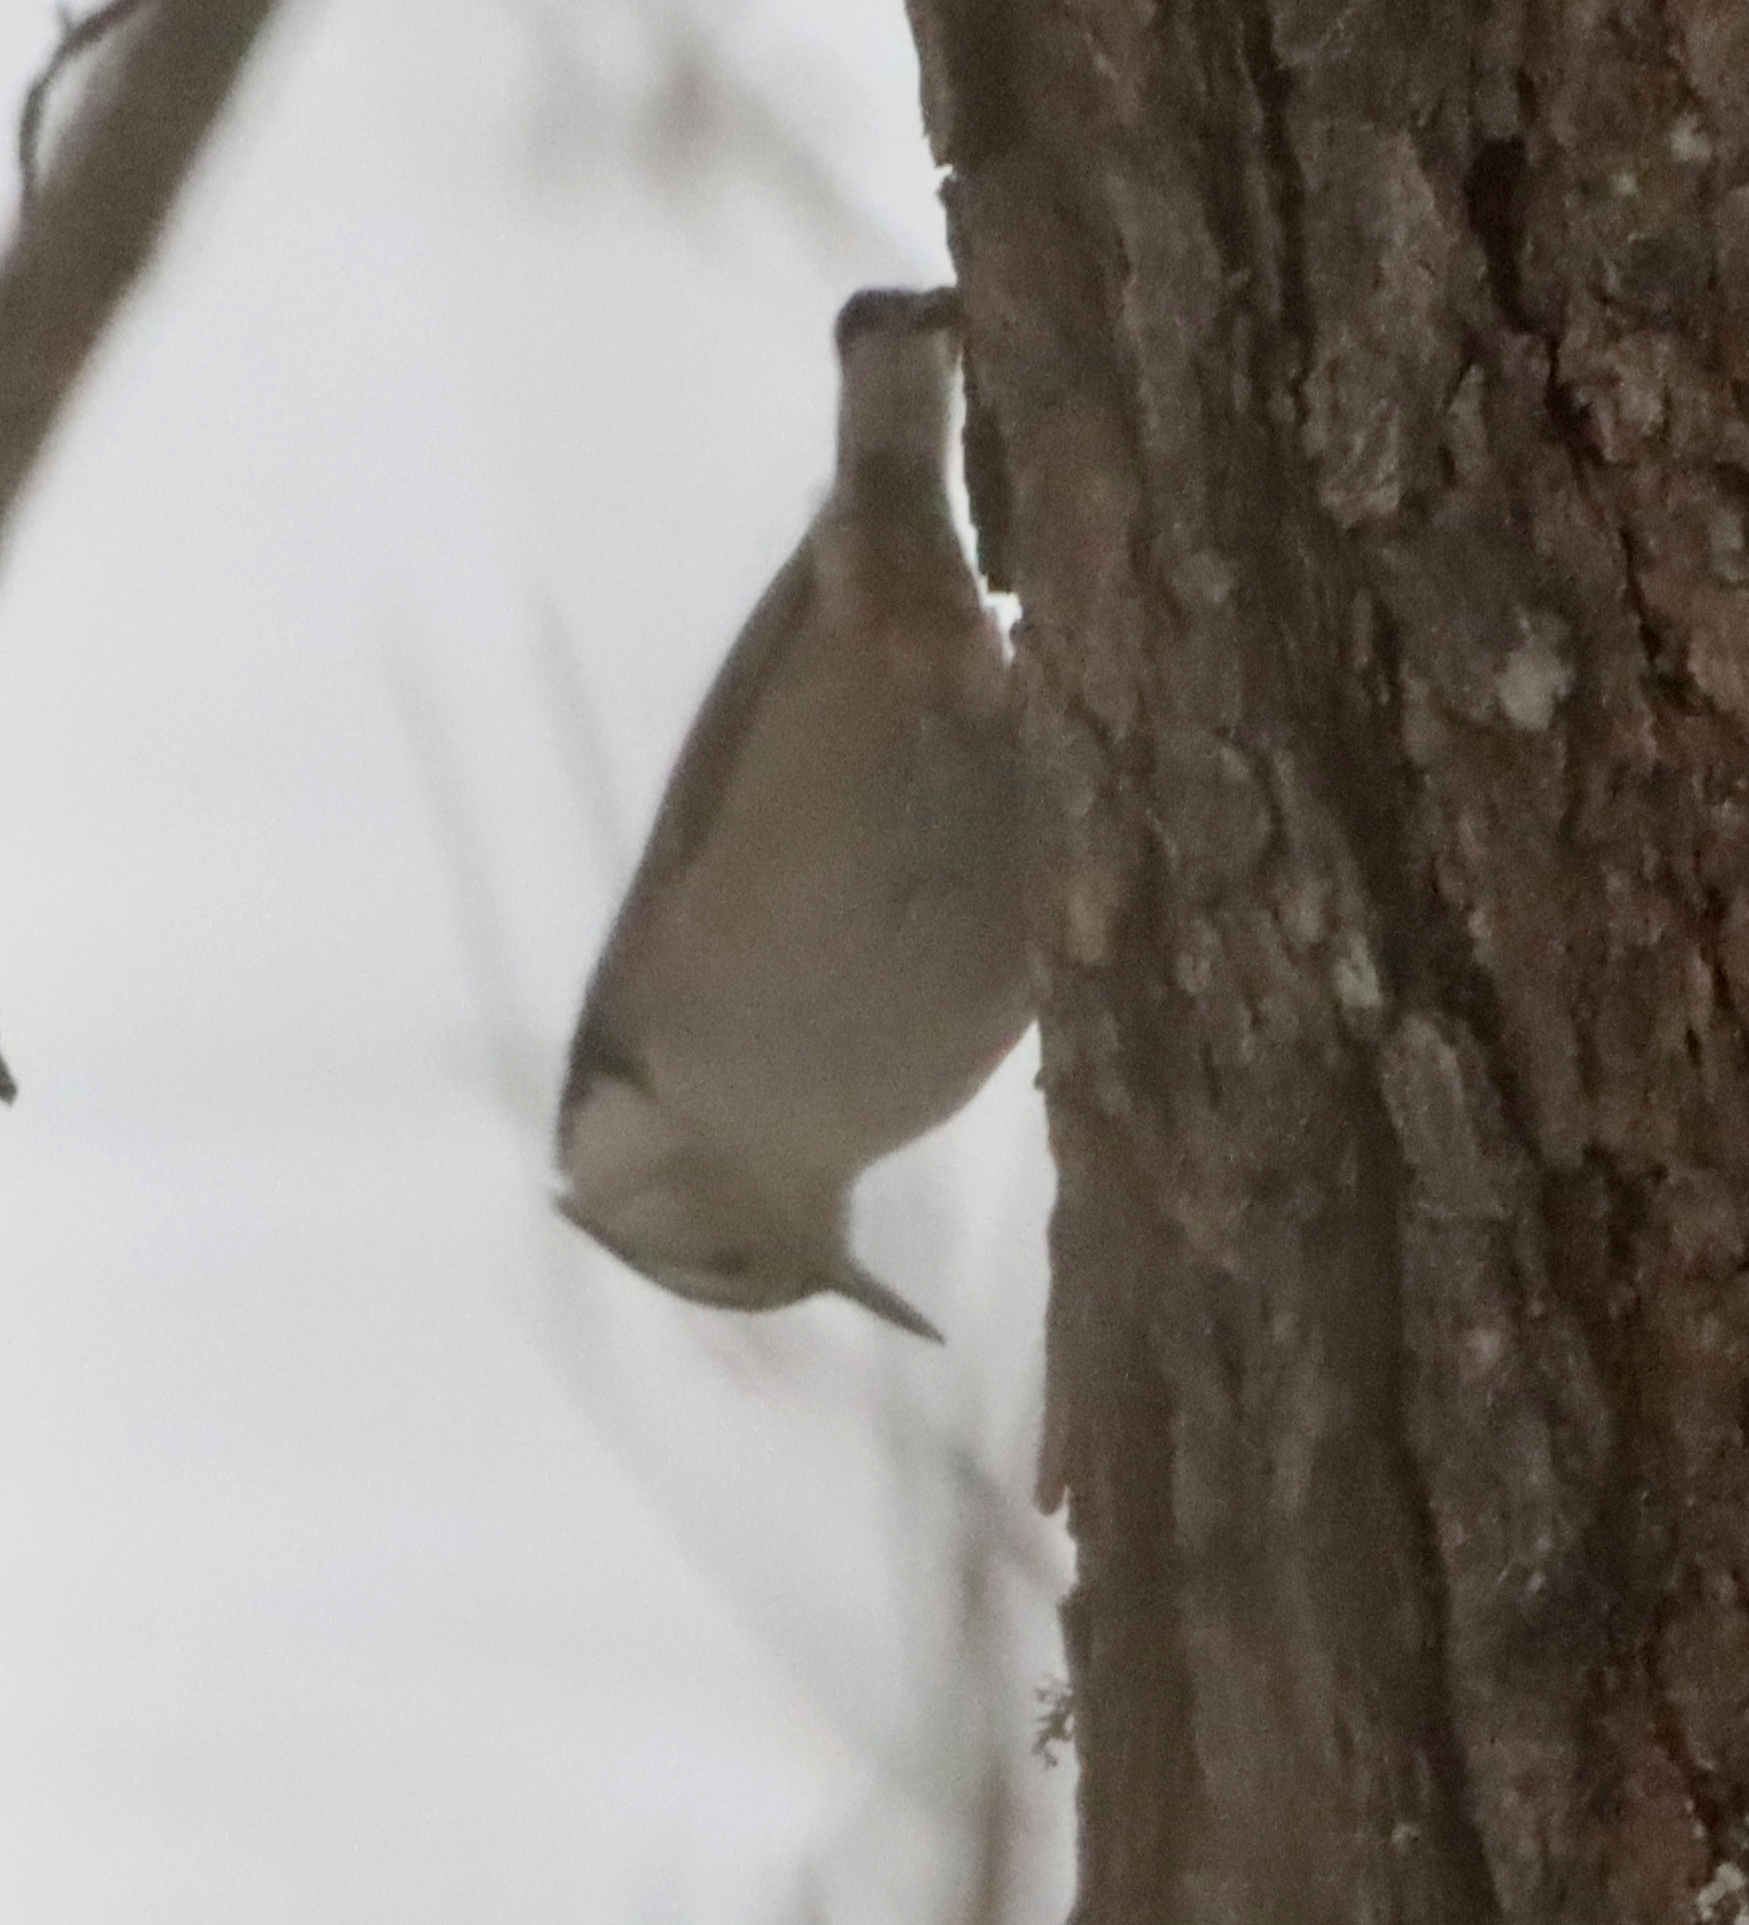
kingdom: Animalia
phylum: Chordata
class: Aves
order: Passeriformes
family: Sittidae
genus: Sitta
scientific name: Sitta carolinensis
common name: White-breasted nuthatch
